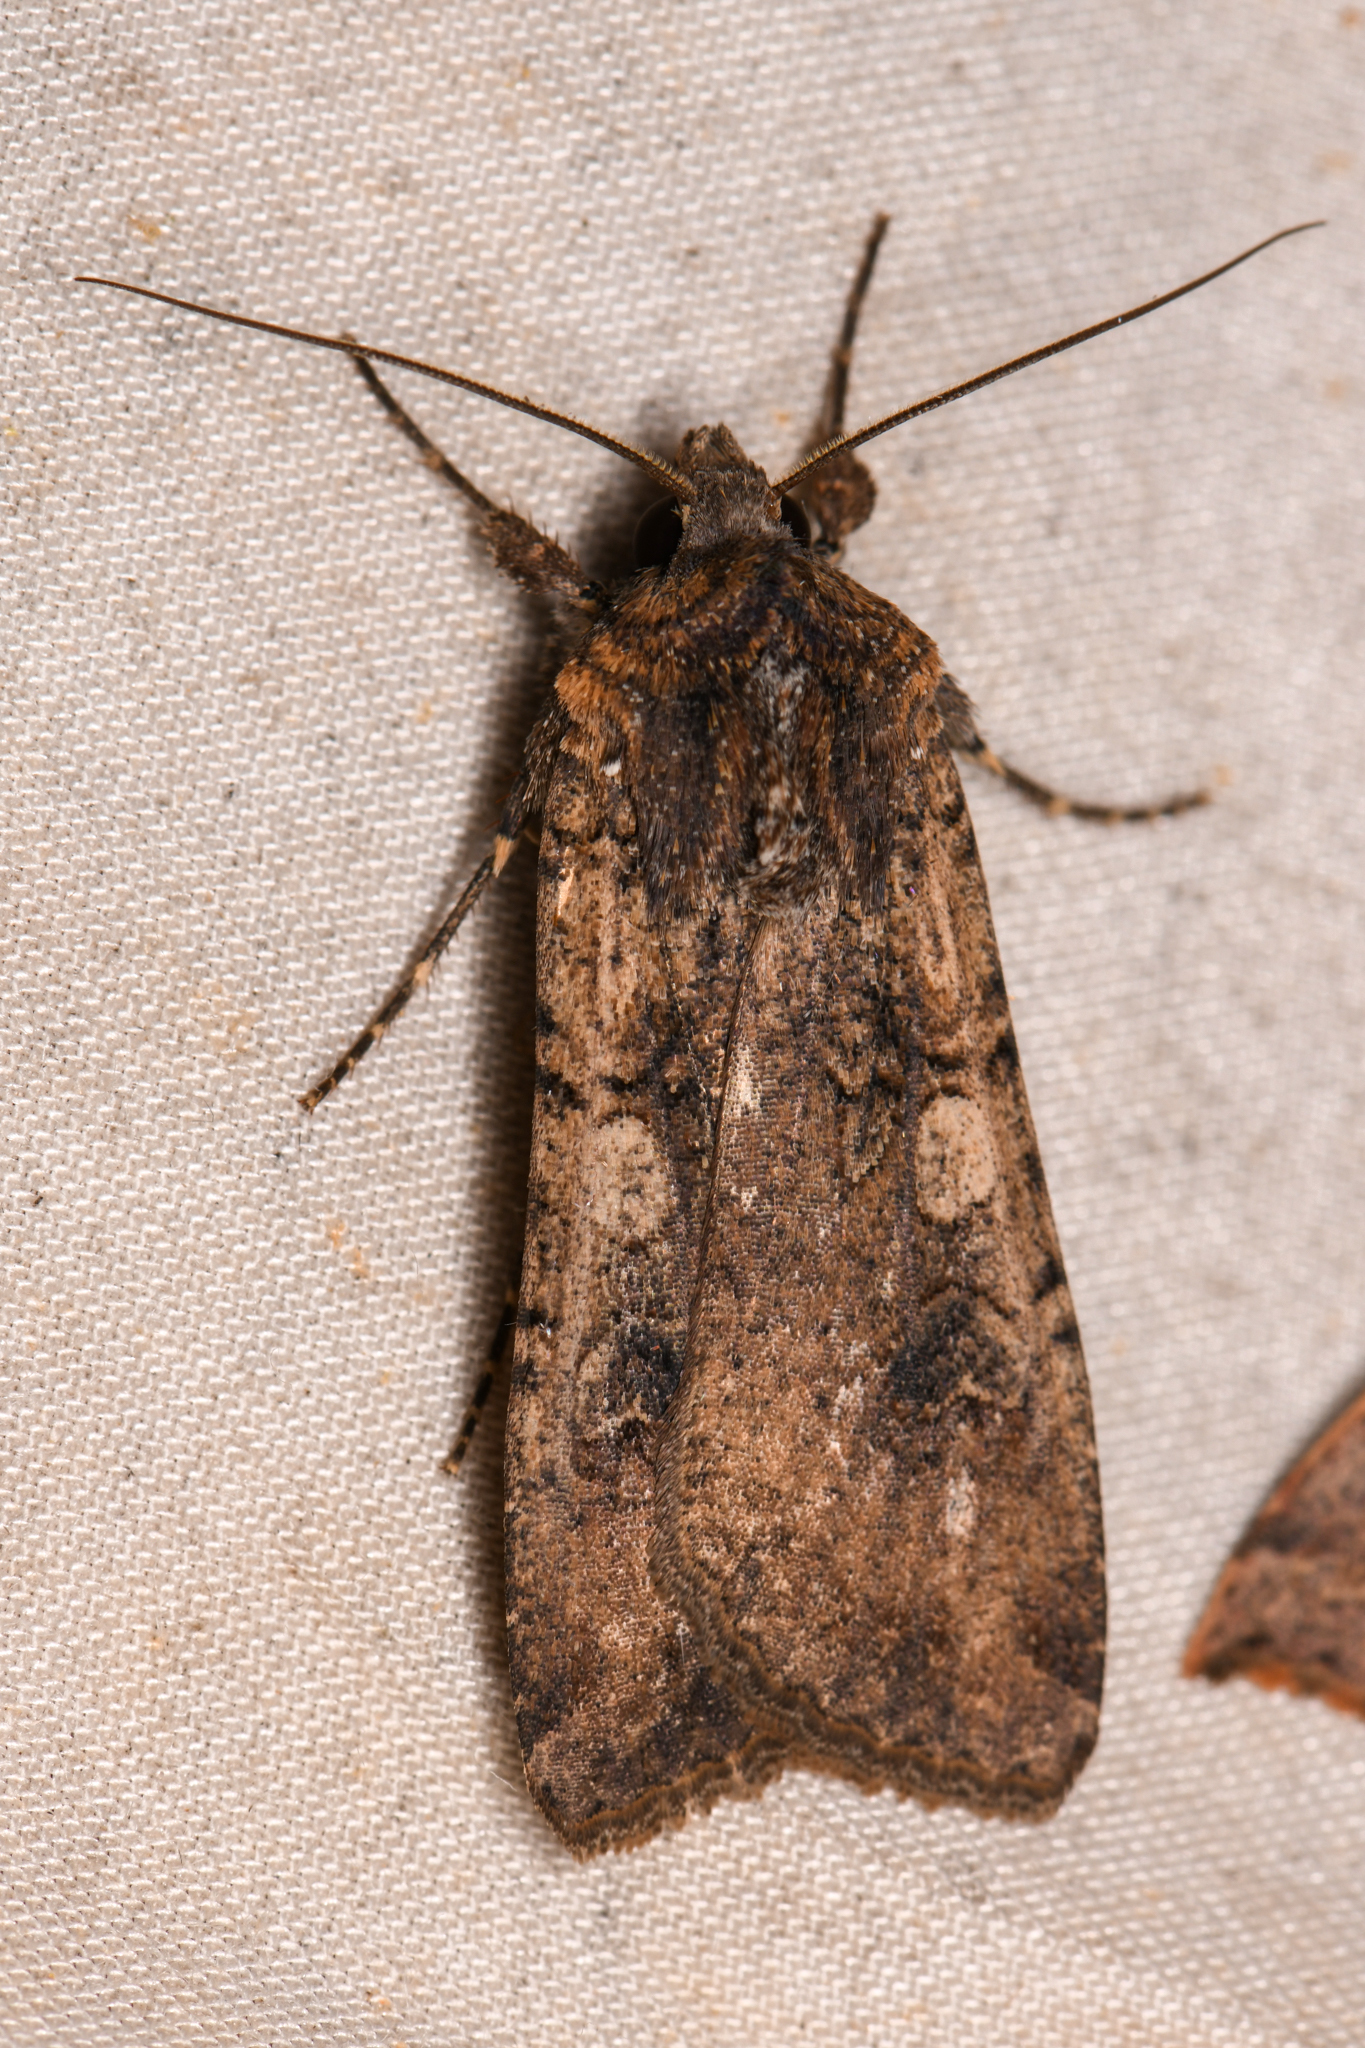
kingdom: Animalia
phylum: Arthropoda
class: Insecta
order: Lepidoptera
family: Noctuidae
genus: Peridroma
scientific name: Peridroma saucia
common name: Pearly underwing
